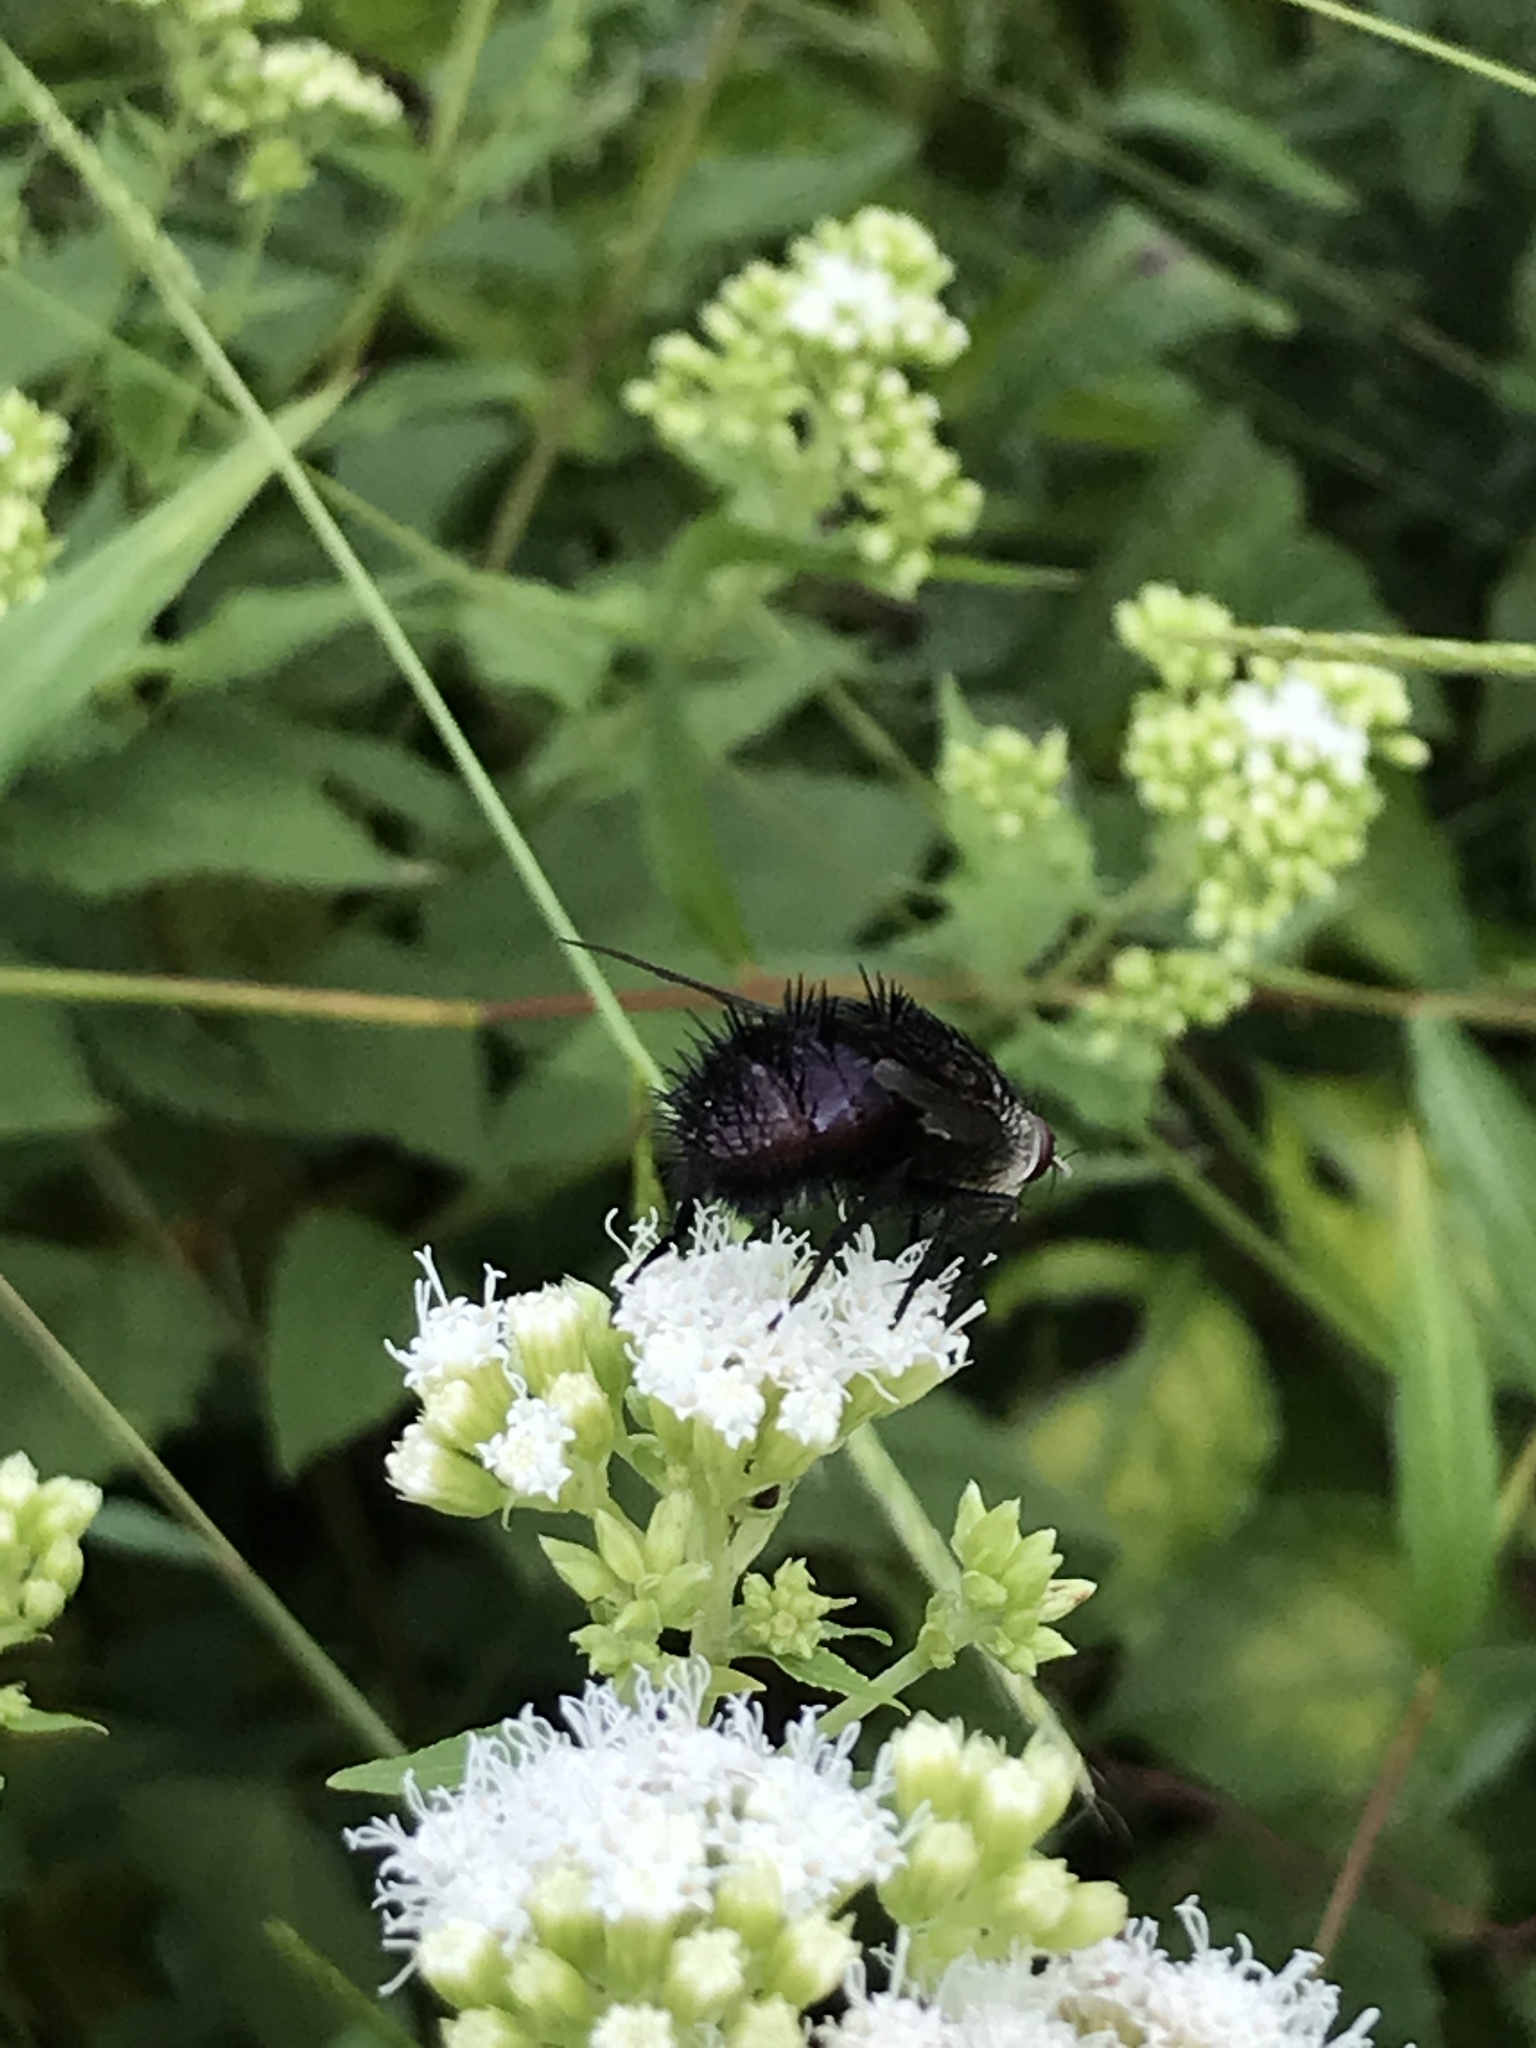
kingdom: Animalia
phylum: Arthropoda
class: Insecta
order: Diptera
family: Tachinidae
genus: Juriniopsis
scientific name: Juriniopsis adusta
